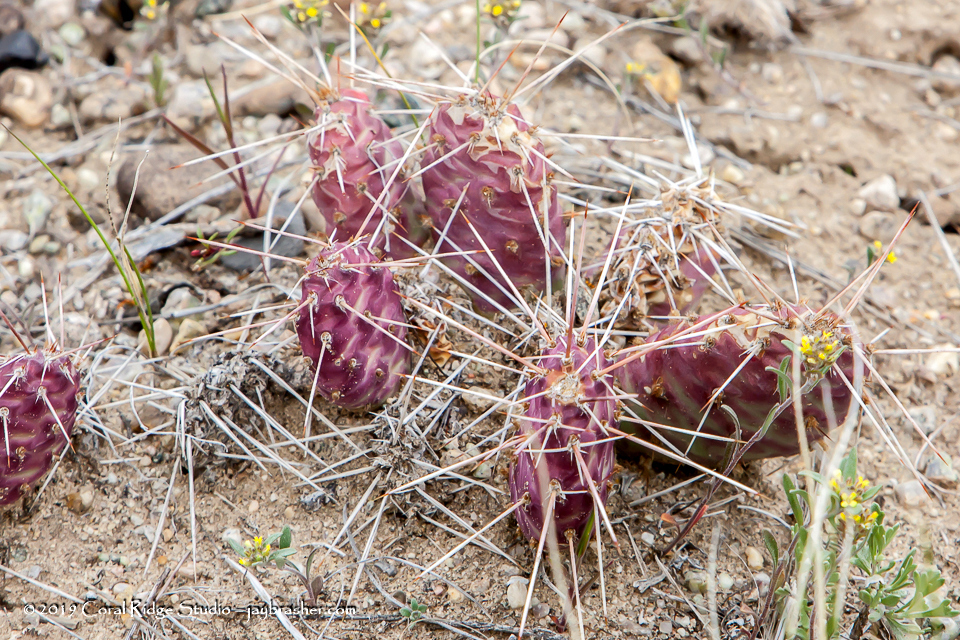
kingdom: Plantae
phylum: Tracheophyta
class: Magnoliopsida
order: Caryophyllales
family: Cactaceae
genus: Opuntia
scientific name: Opuntia debreczyi
